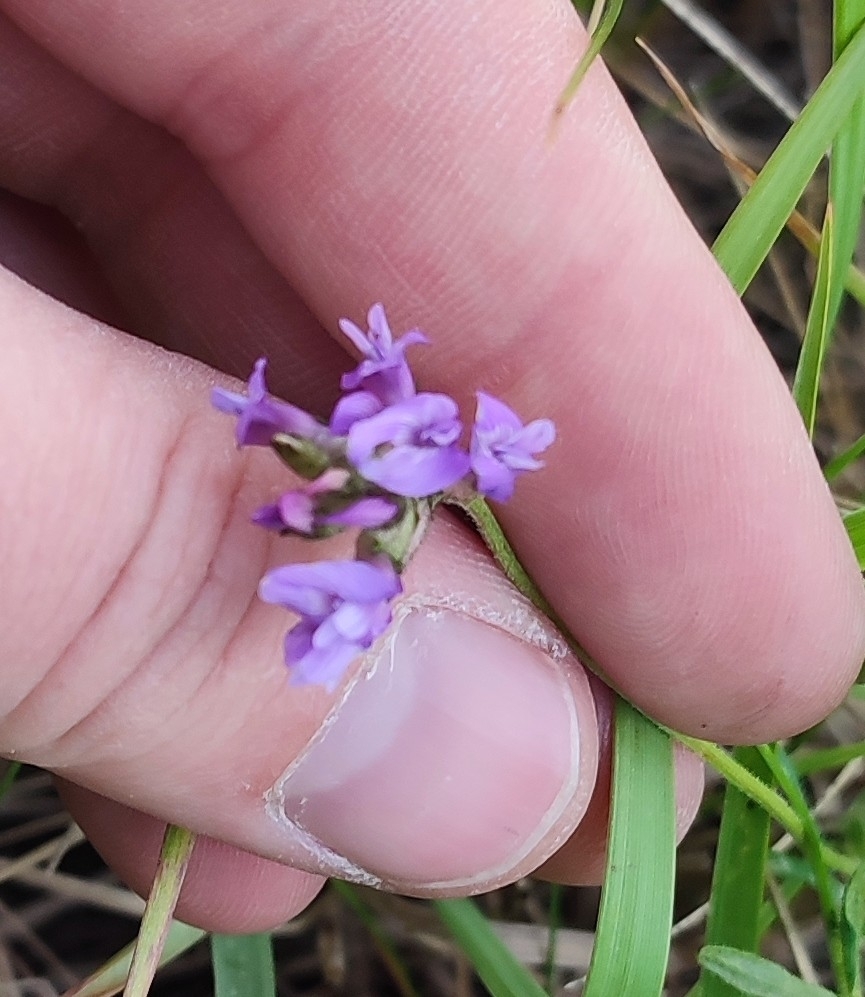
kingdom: Plantae
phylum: Tracheophyta
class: Magnoliopsida
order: Fabales
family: Fabaceae
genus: Astragalus
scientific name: Astragalus danicus
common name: Purple milk-vetch
